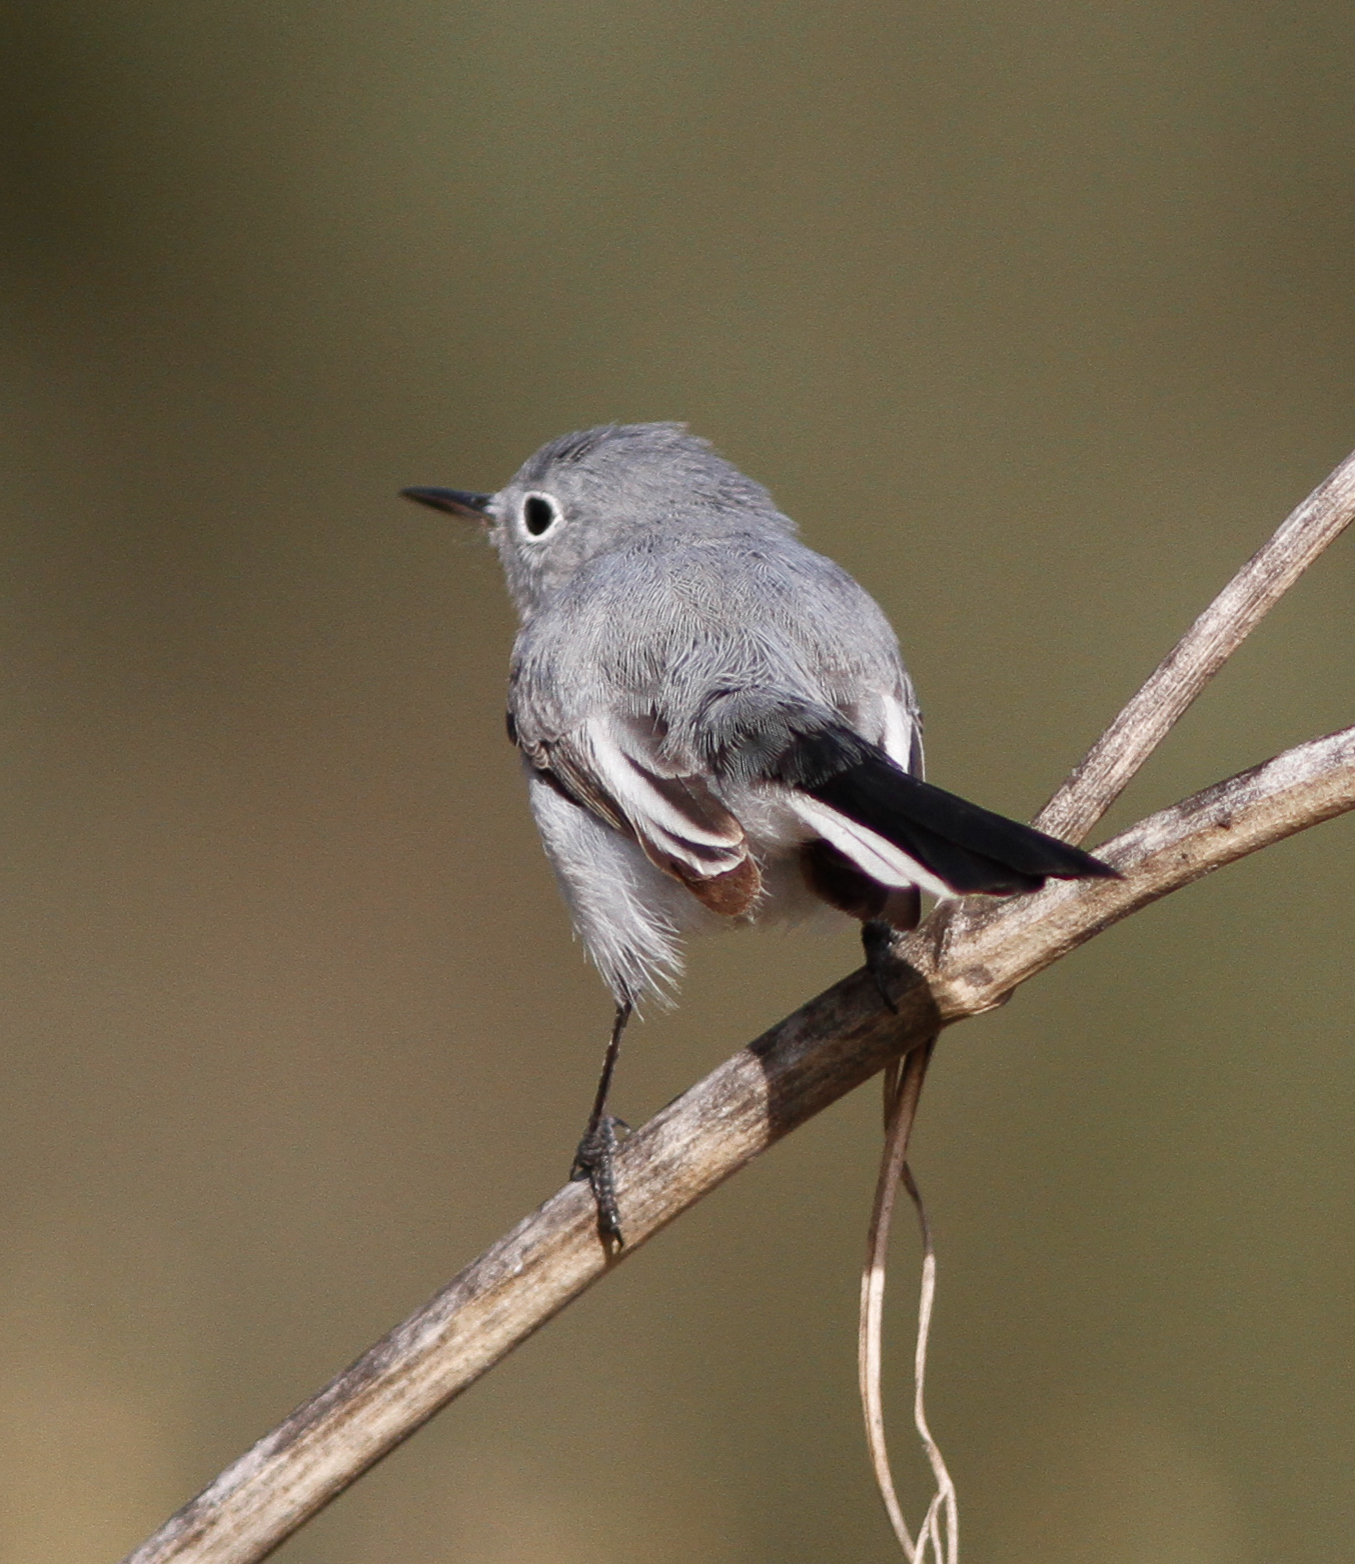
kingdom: Animalia
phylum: Chordata
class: Aves
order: Passeriformes
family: Polioptilidae
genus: Polioptila
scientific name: Polioptila caerulea
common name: Blue-gray gnatcatcher
